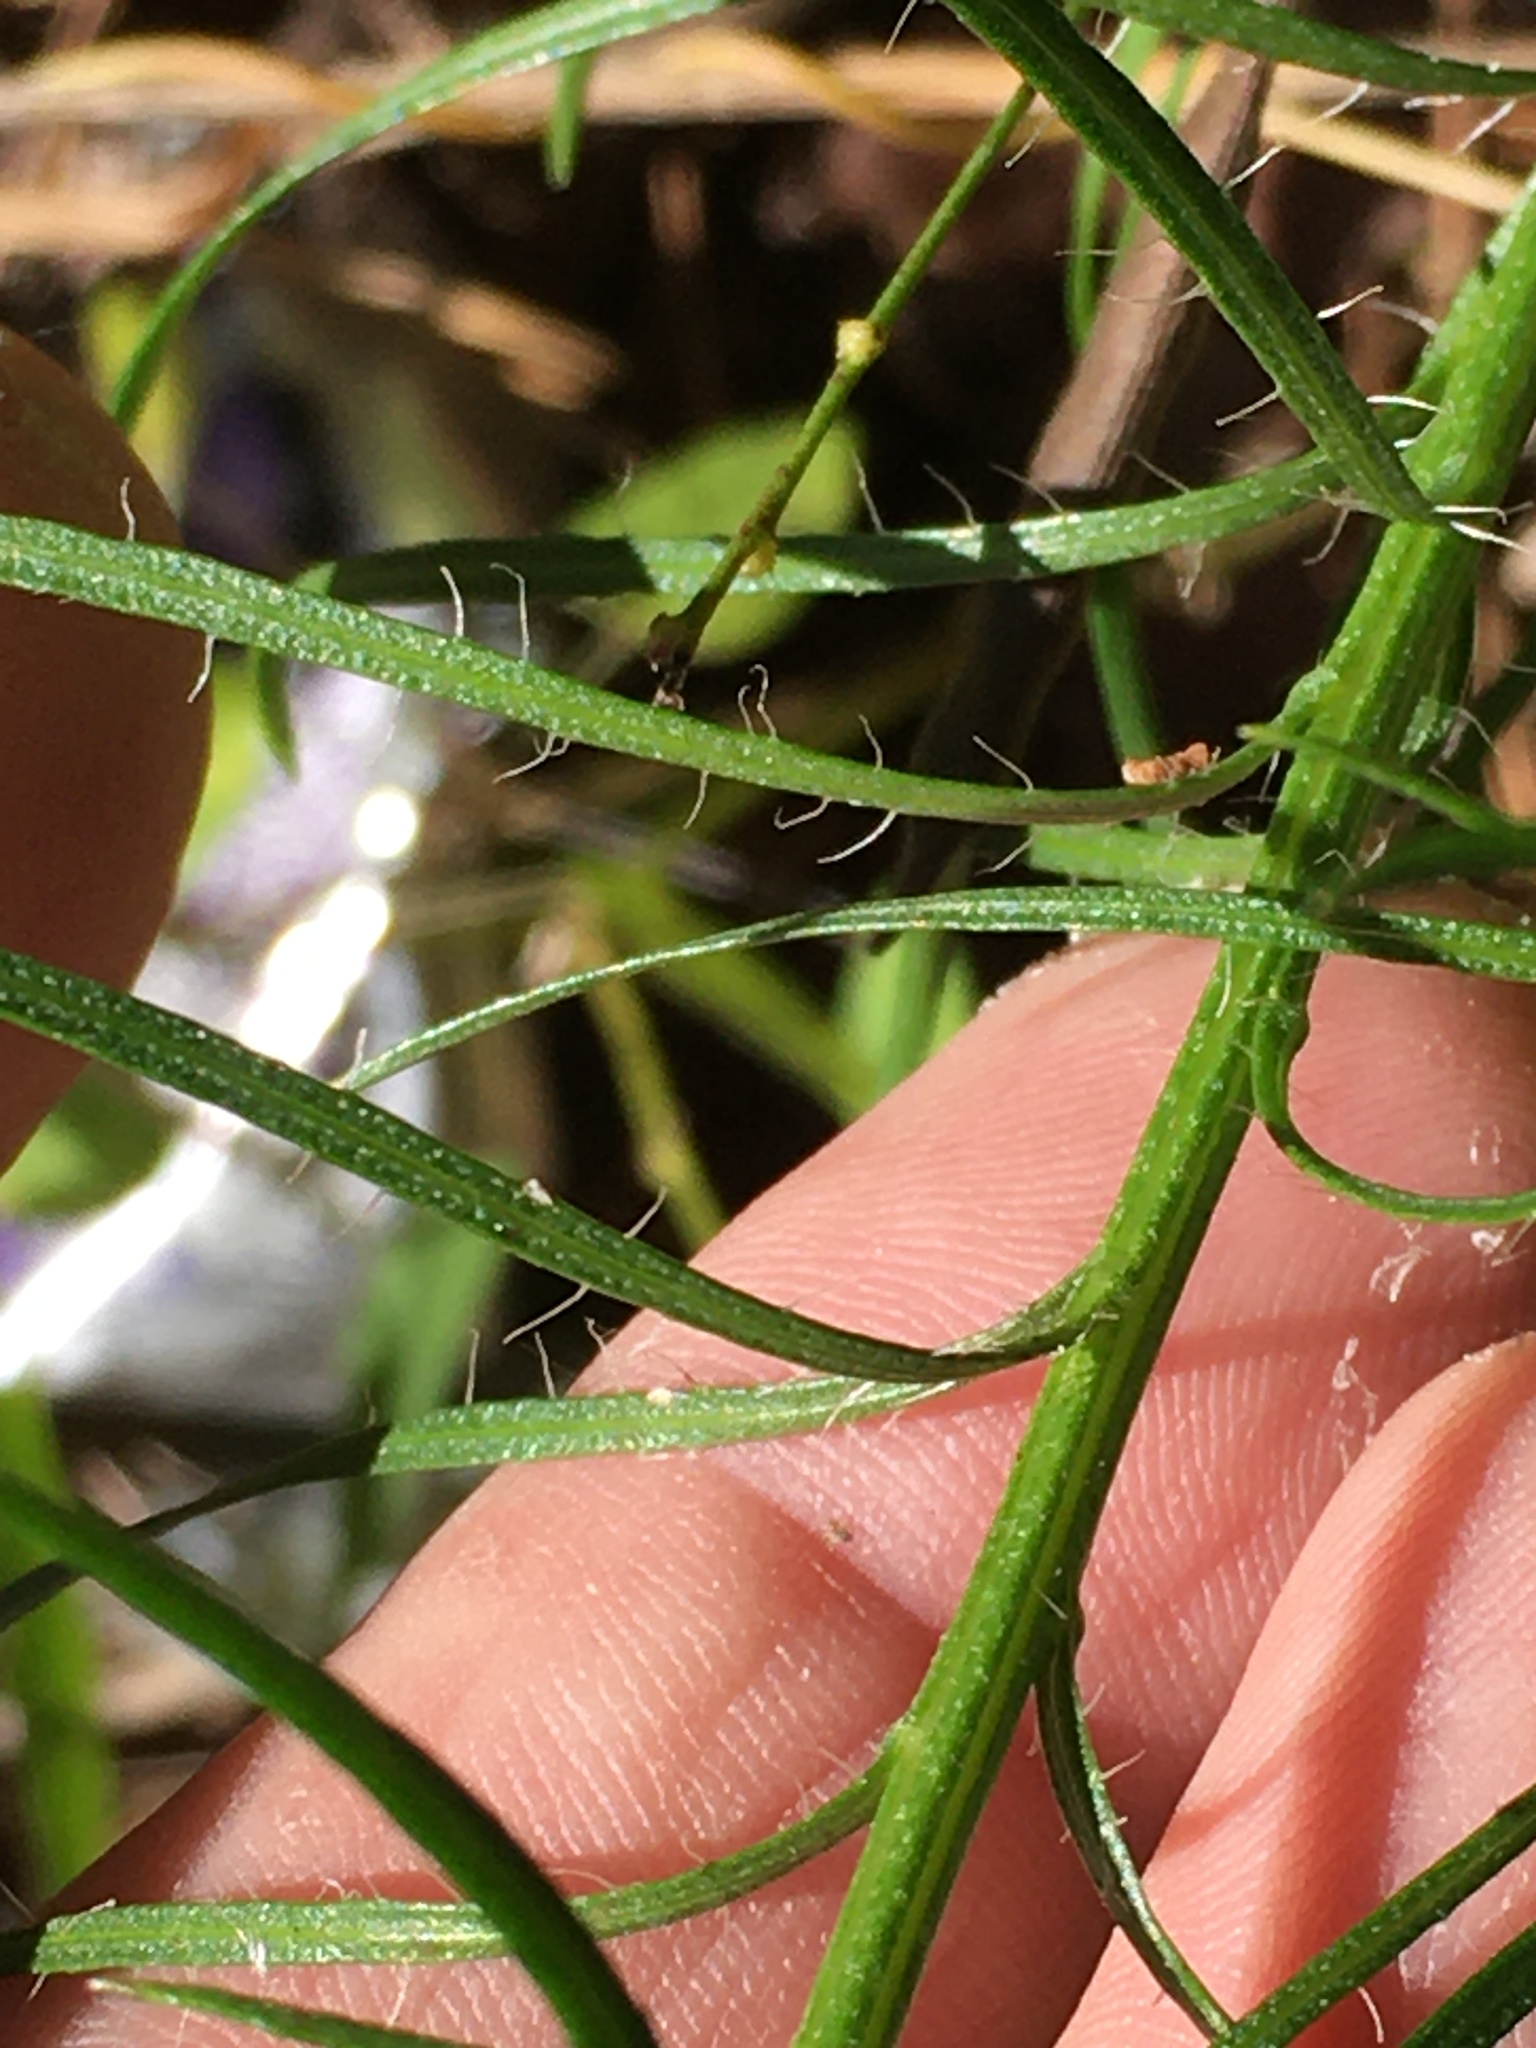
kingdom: Plantae
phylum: Tracheophyta
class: Magnoliopsida
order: Asterales
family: Asteraceae
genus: Liatris
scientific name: Liatris pilosa
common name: Grass-leaf gayfeather
